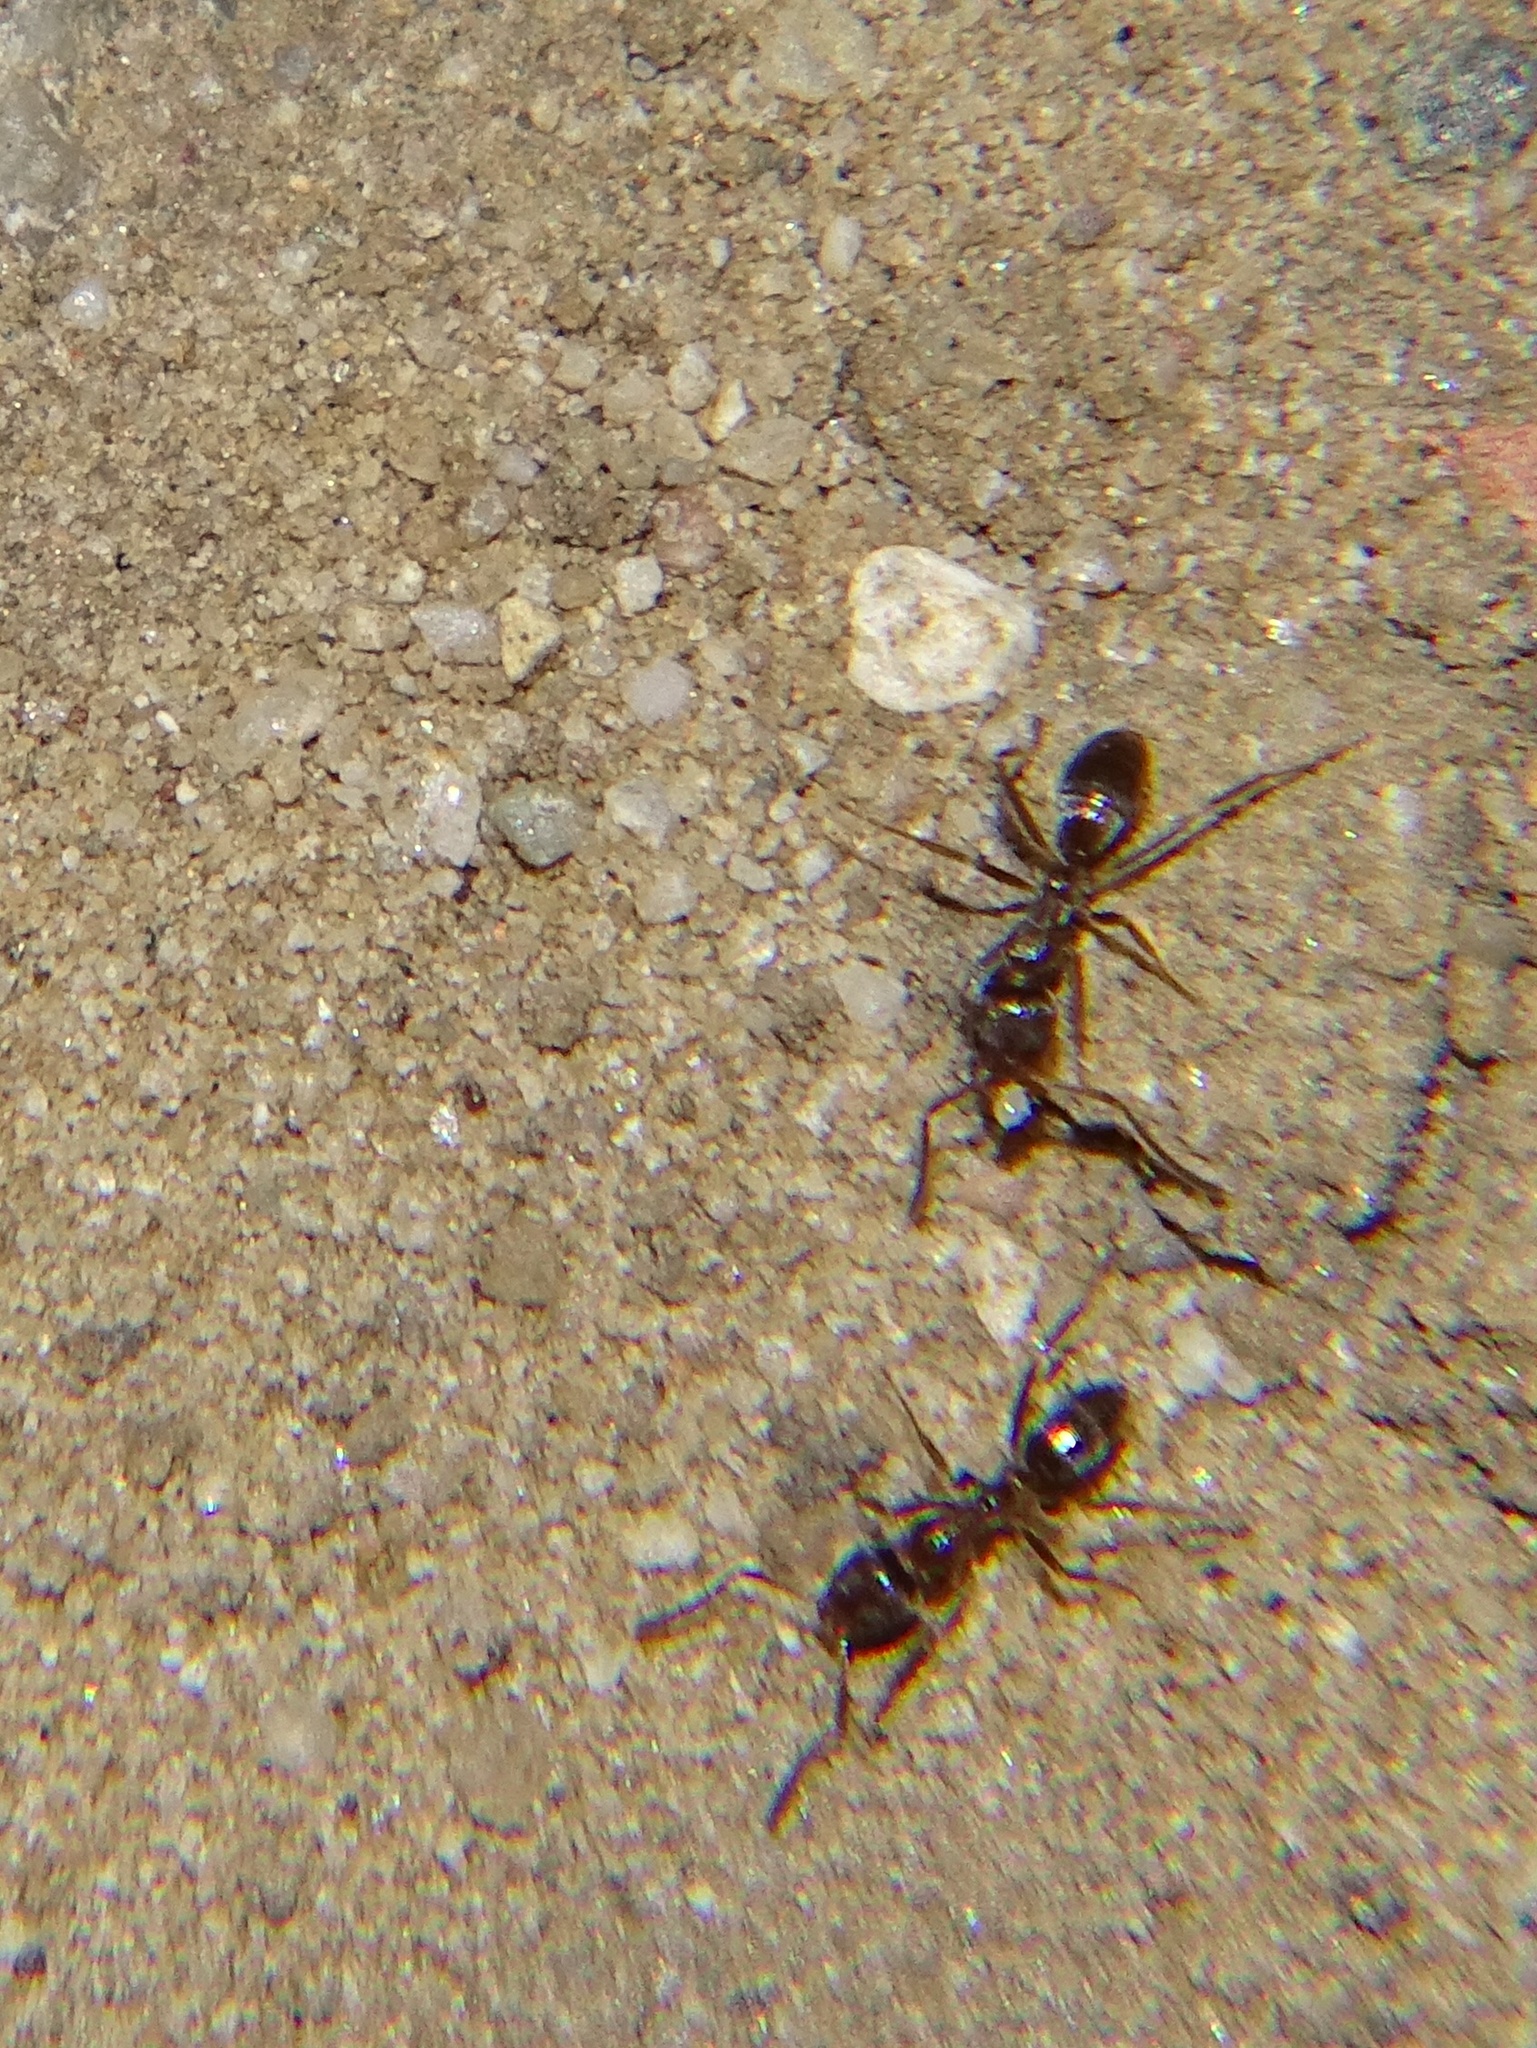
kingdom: Animalia
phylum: Arthropoda
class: Insecta
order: Hymenoptera
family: Formicidae
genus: Linepithema
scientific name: Linepithema humile
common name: Argentine ant
